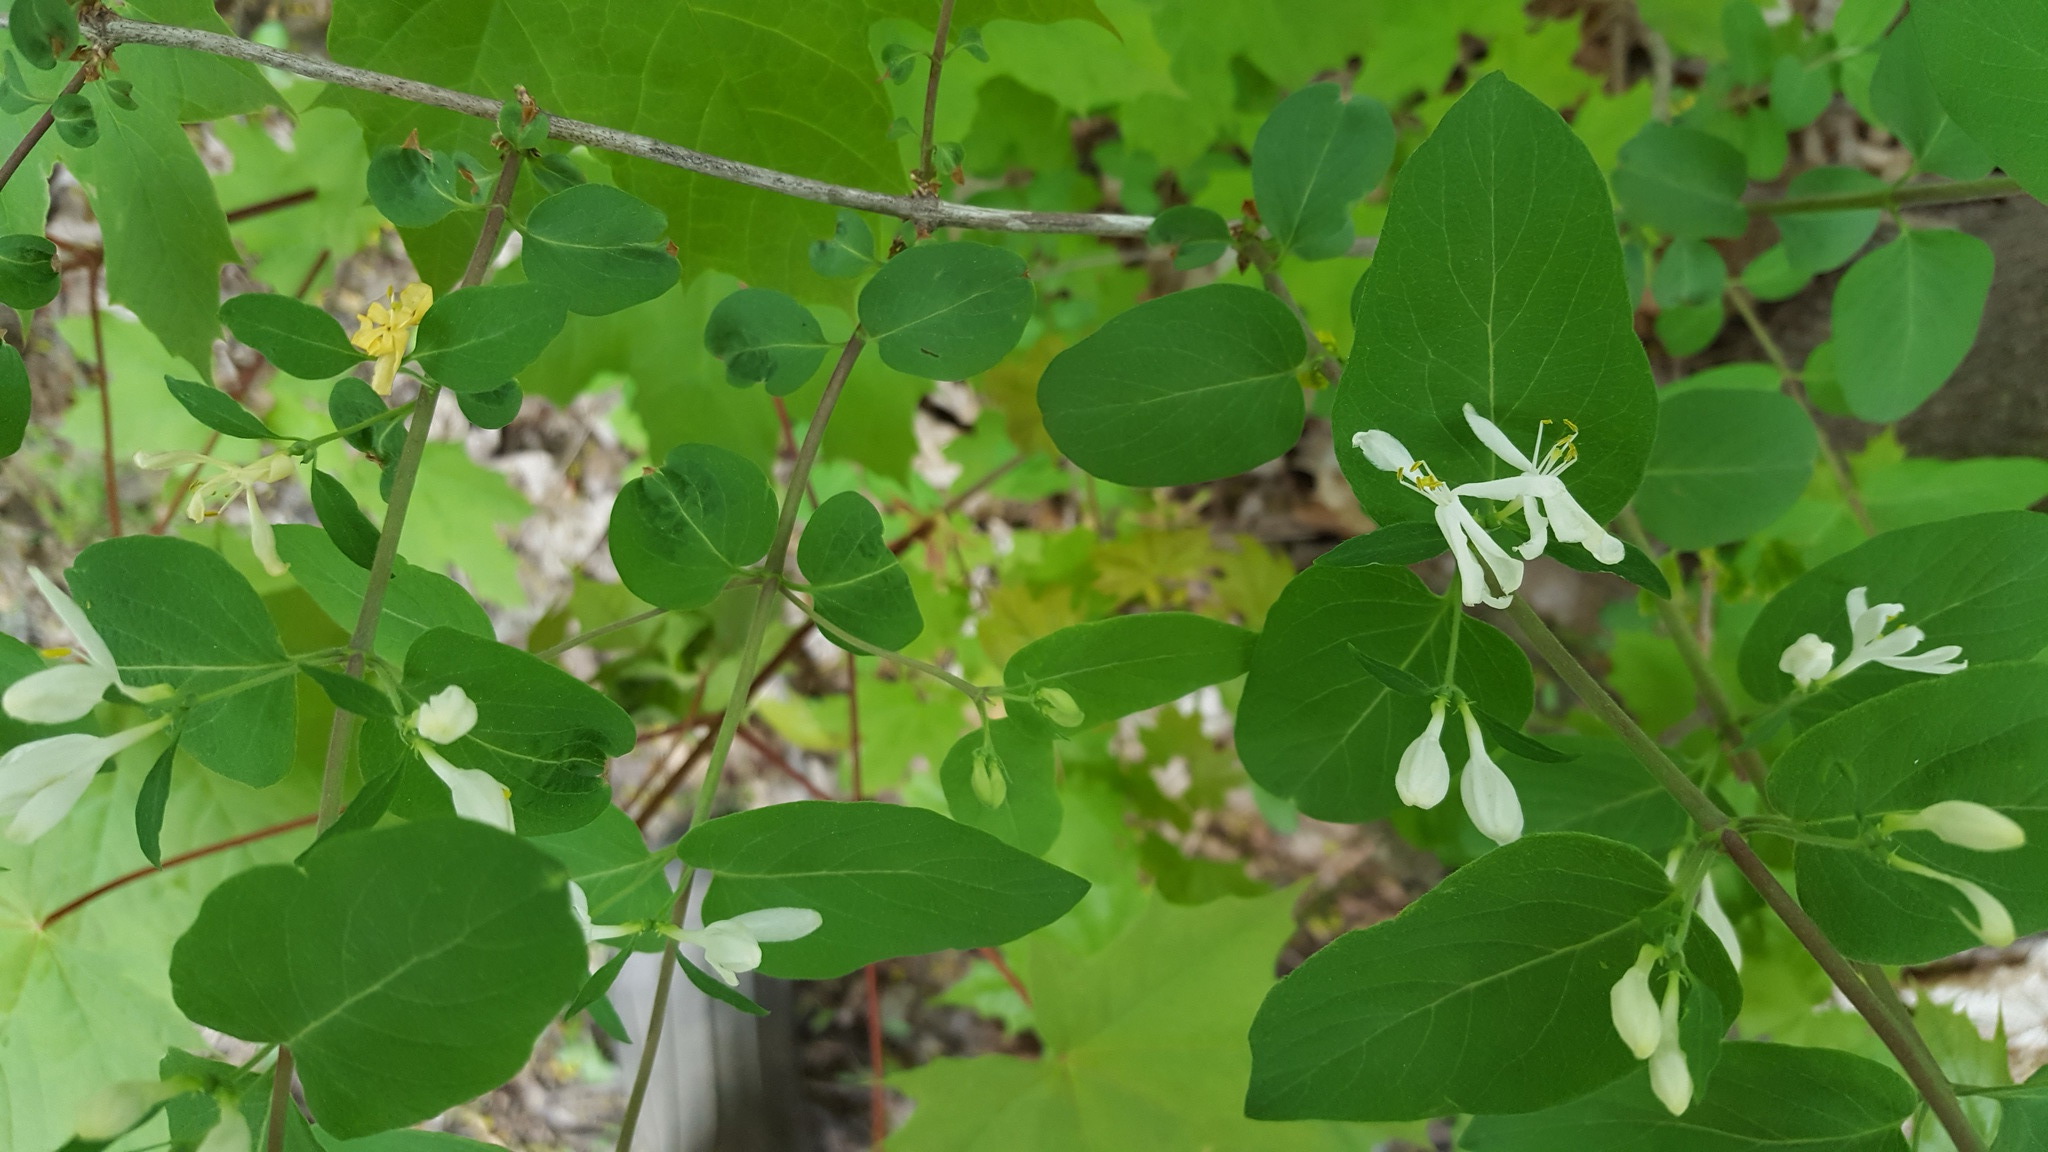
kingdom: Plantae
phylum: Tracheophyta
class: Magnoliopsida
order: Dipsacales
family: Caprifoliaceae
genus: Lonicera
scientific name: Lonicera morrowii
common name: Morrow's honeysuckle
